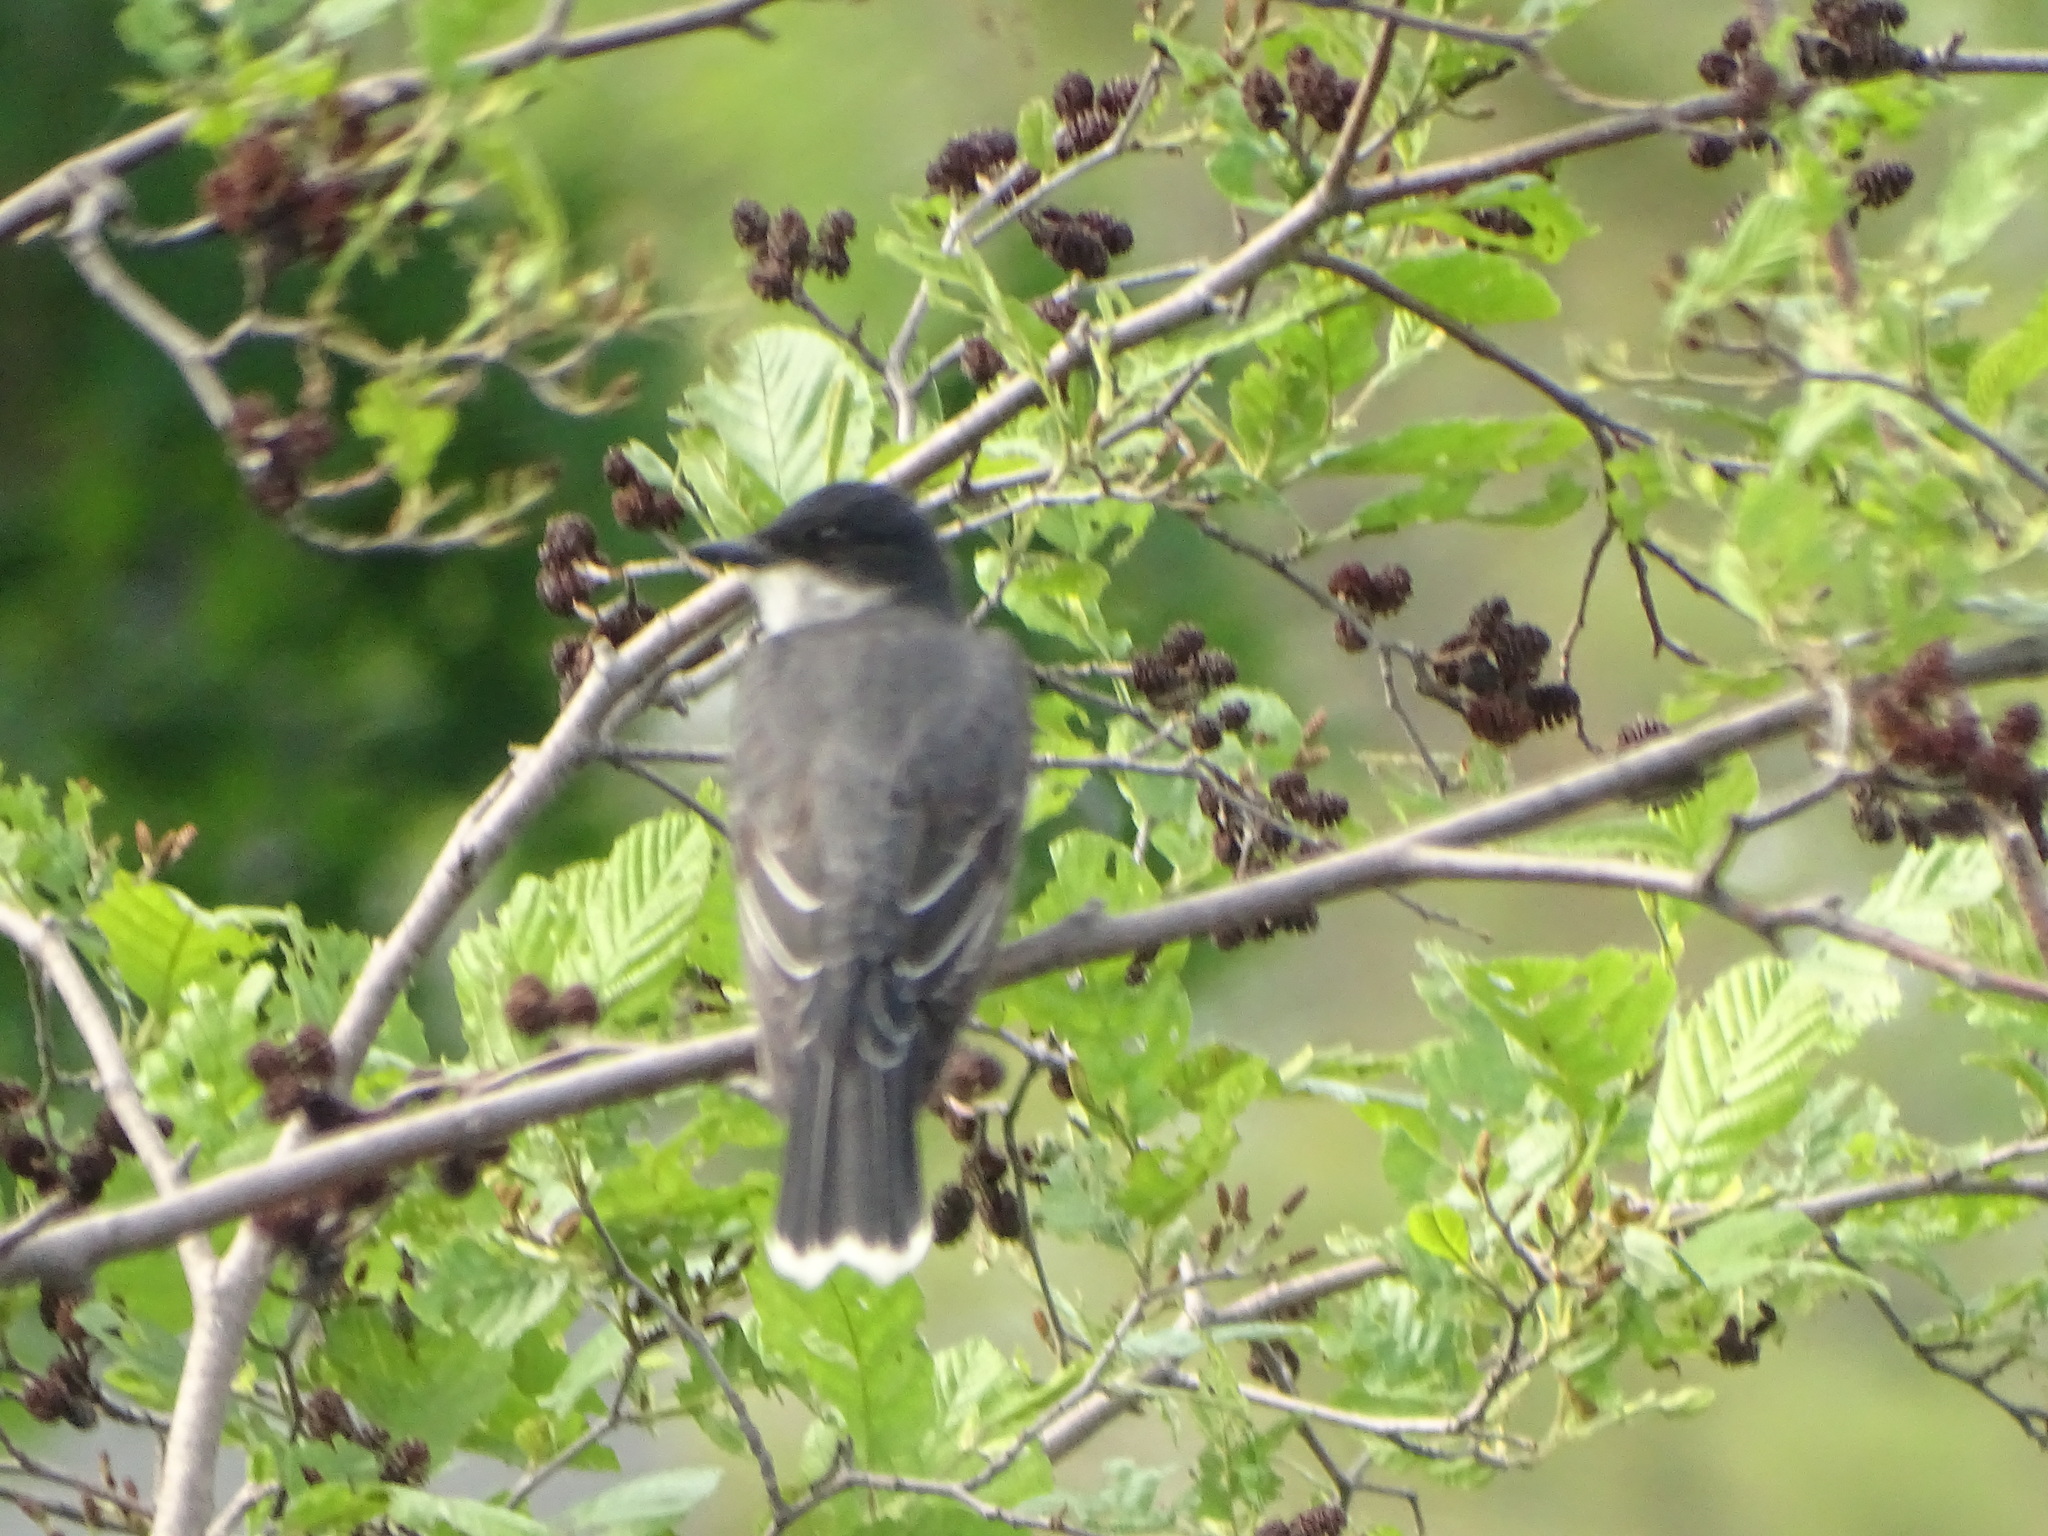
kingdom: Animalia
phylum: Chordata
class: Aves
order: Passeriformes
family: Tyrannidae
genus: Tyrannus
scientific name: Tyrannus tyrannus
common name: Eastern kingbird
